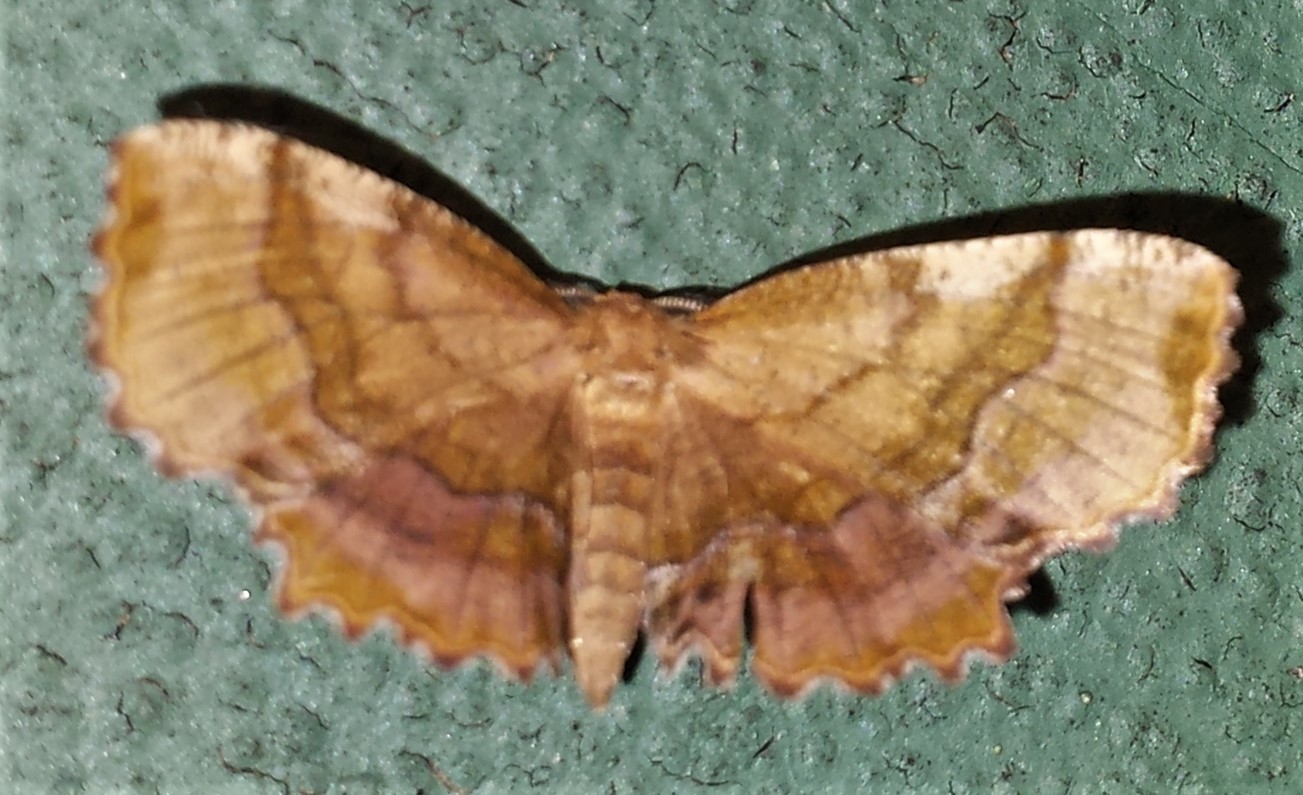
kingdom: Animalia
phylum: Arthropoda
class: Insecta
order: Lepidoptera
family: Geometridae
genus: Cepphis
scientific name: Cepphis armataria
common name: Scallop moth
